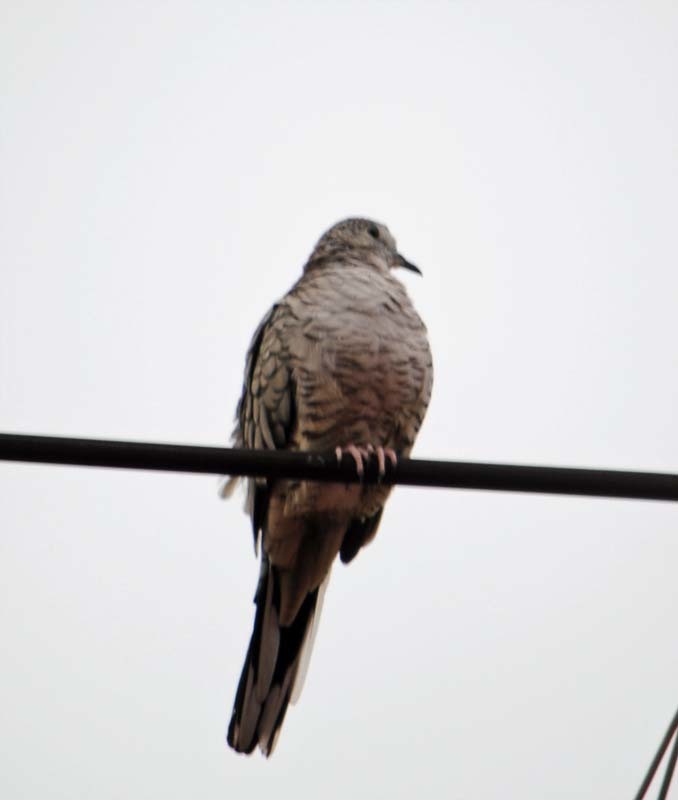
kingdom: Animalia
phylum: Chordata
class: Aves
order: Columbiformes
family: Columbidae
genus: Columbina
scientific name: Columbina inca
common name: Inca dove
